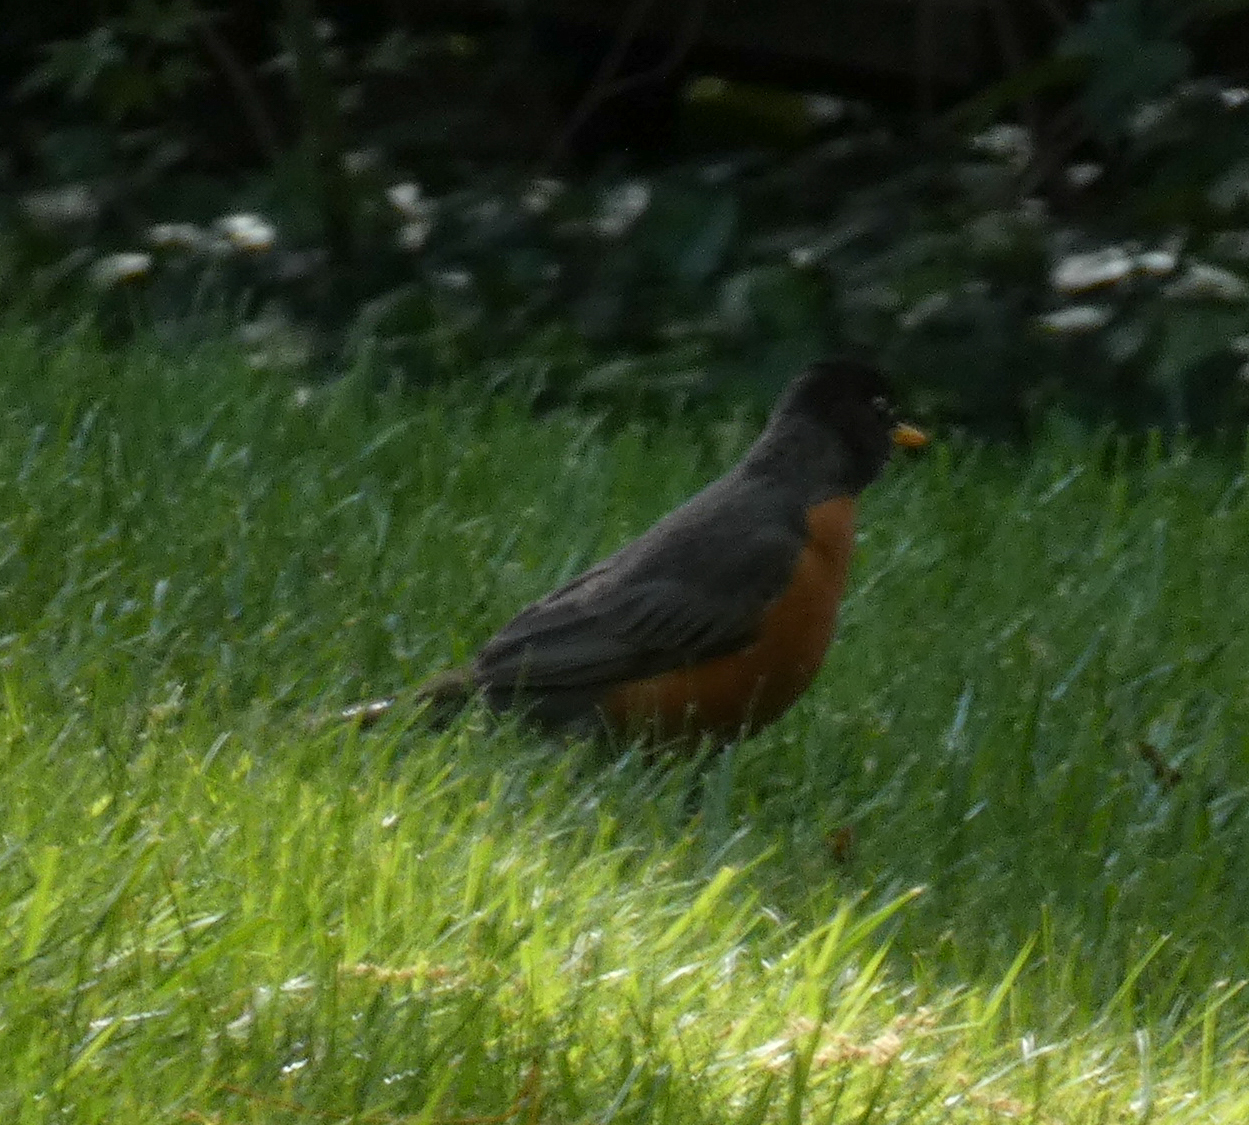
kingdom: Animalia
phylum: Chordata
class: Aves
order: Passeriformes
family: Turdidae
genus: Turdus
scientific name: Turdus migratorius
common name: American robin
